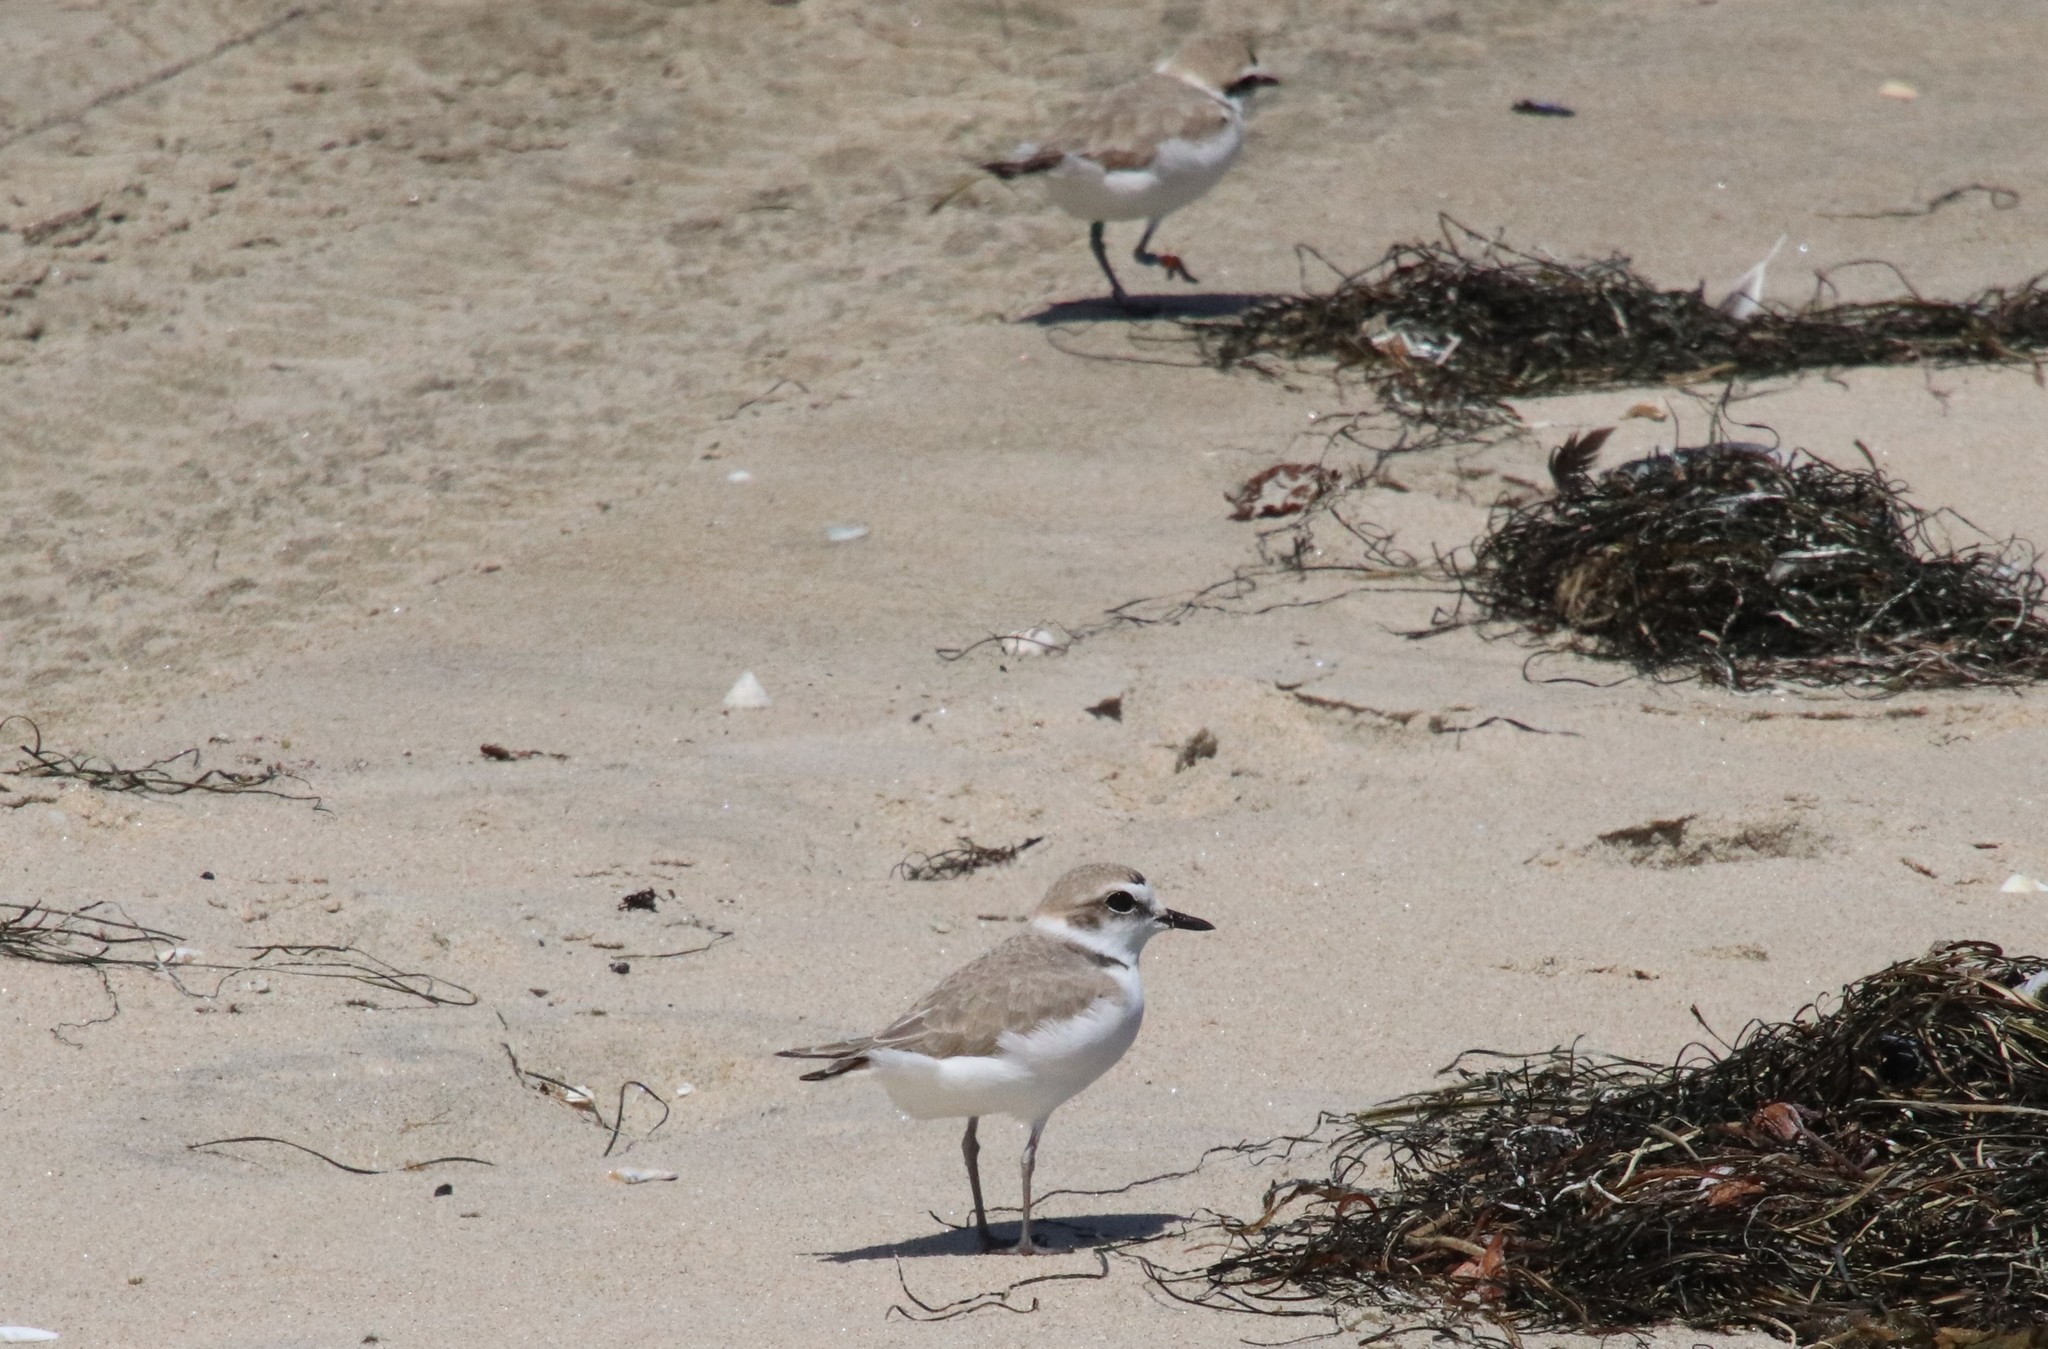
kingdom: Animalia
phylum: Chordata
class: Aves
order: Charadriiformes
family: Charadriidae
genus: Anarhynchus
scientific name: Anarhynchus
